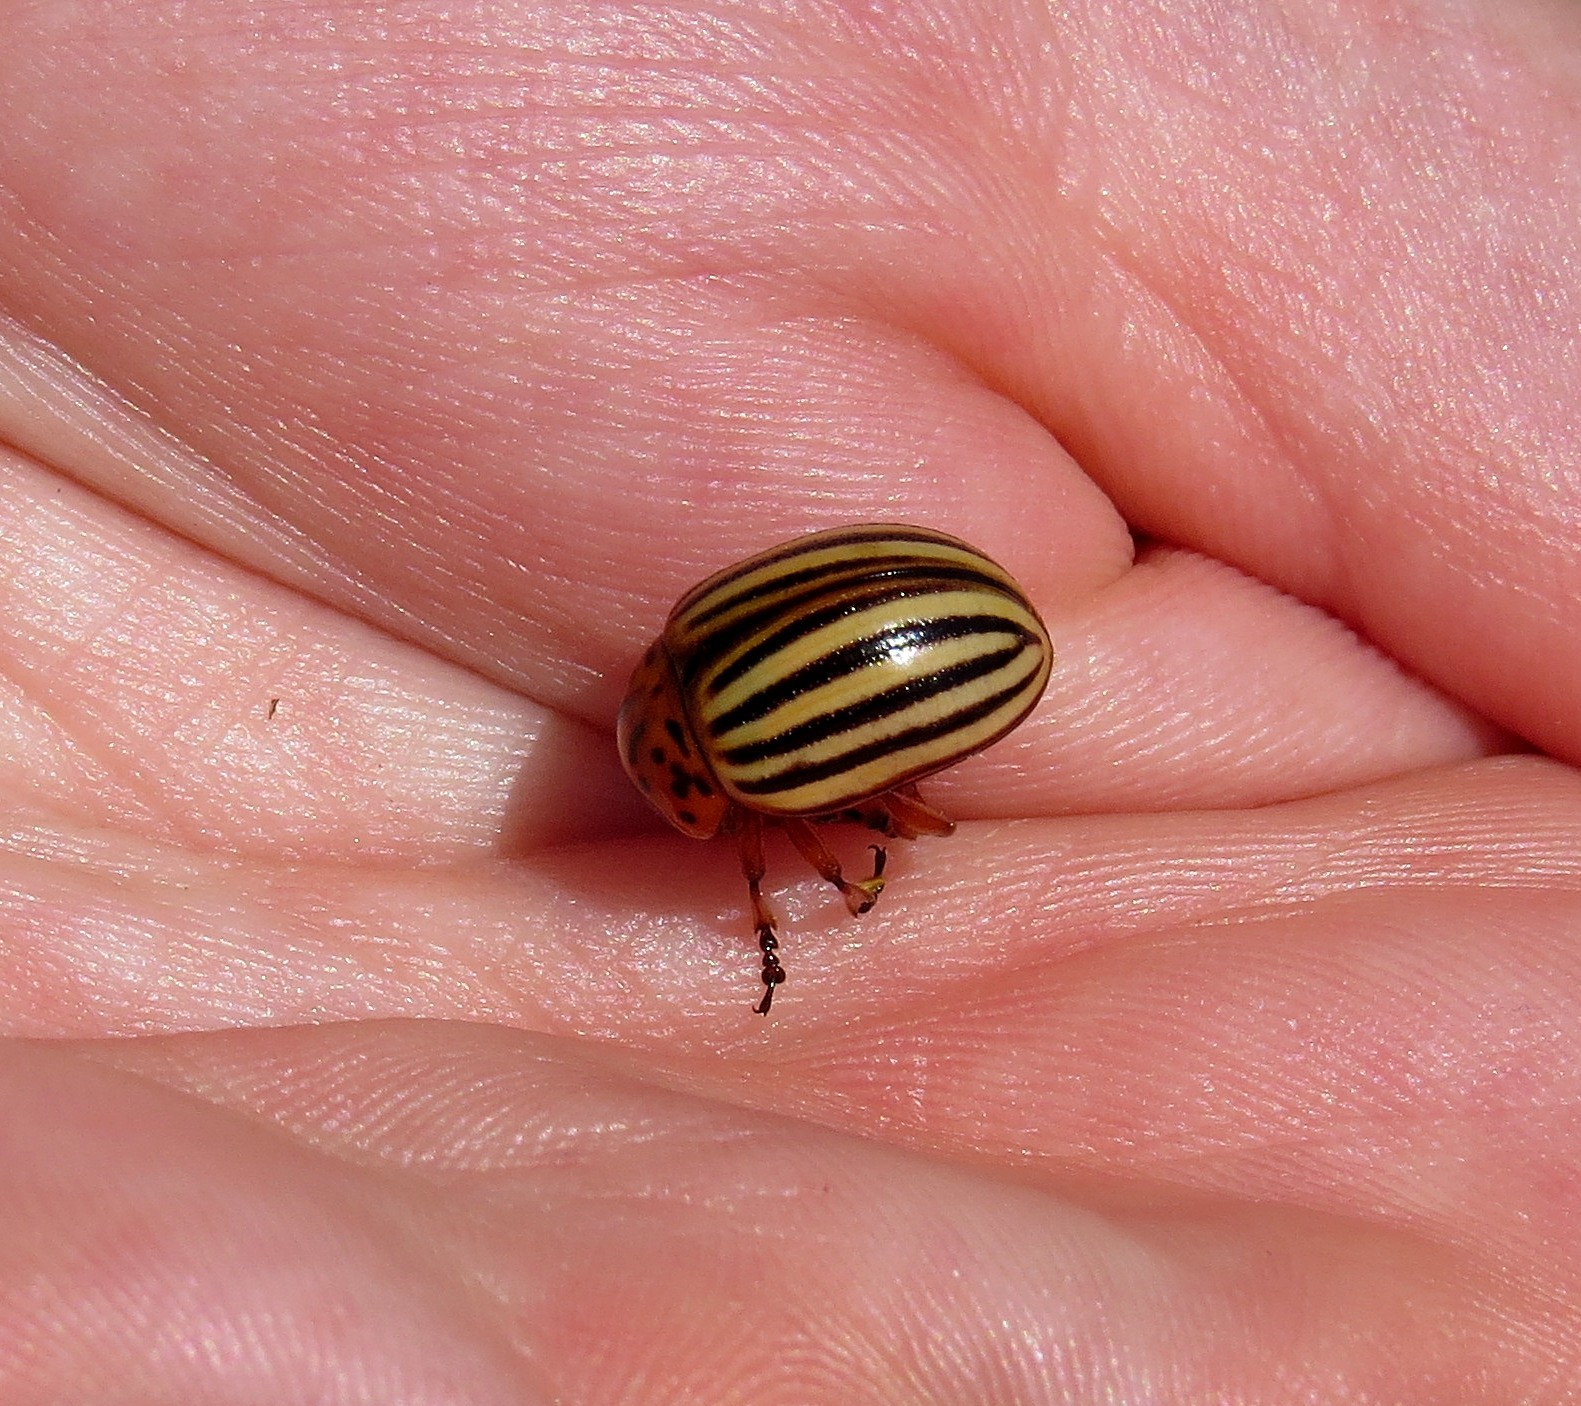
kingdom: Animalia
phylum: Arthropoda
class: Insecta
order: Coleoptera
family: Chrysomelidae
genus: Leptinotarsa
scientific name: Leptinotarsa decemlineata
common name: Colorado potato beetle
